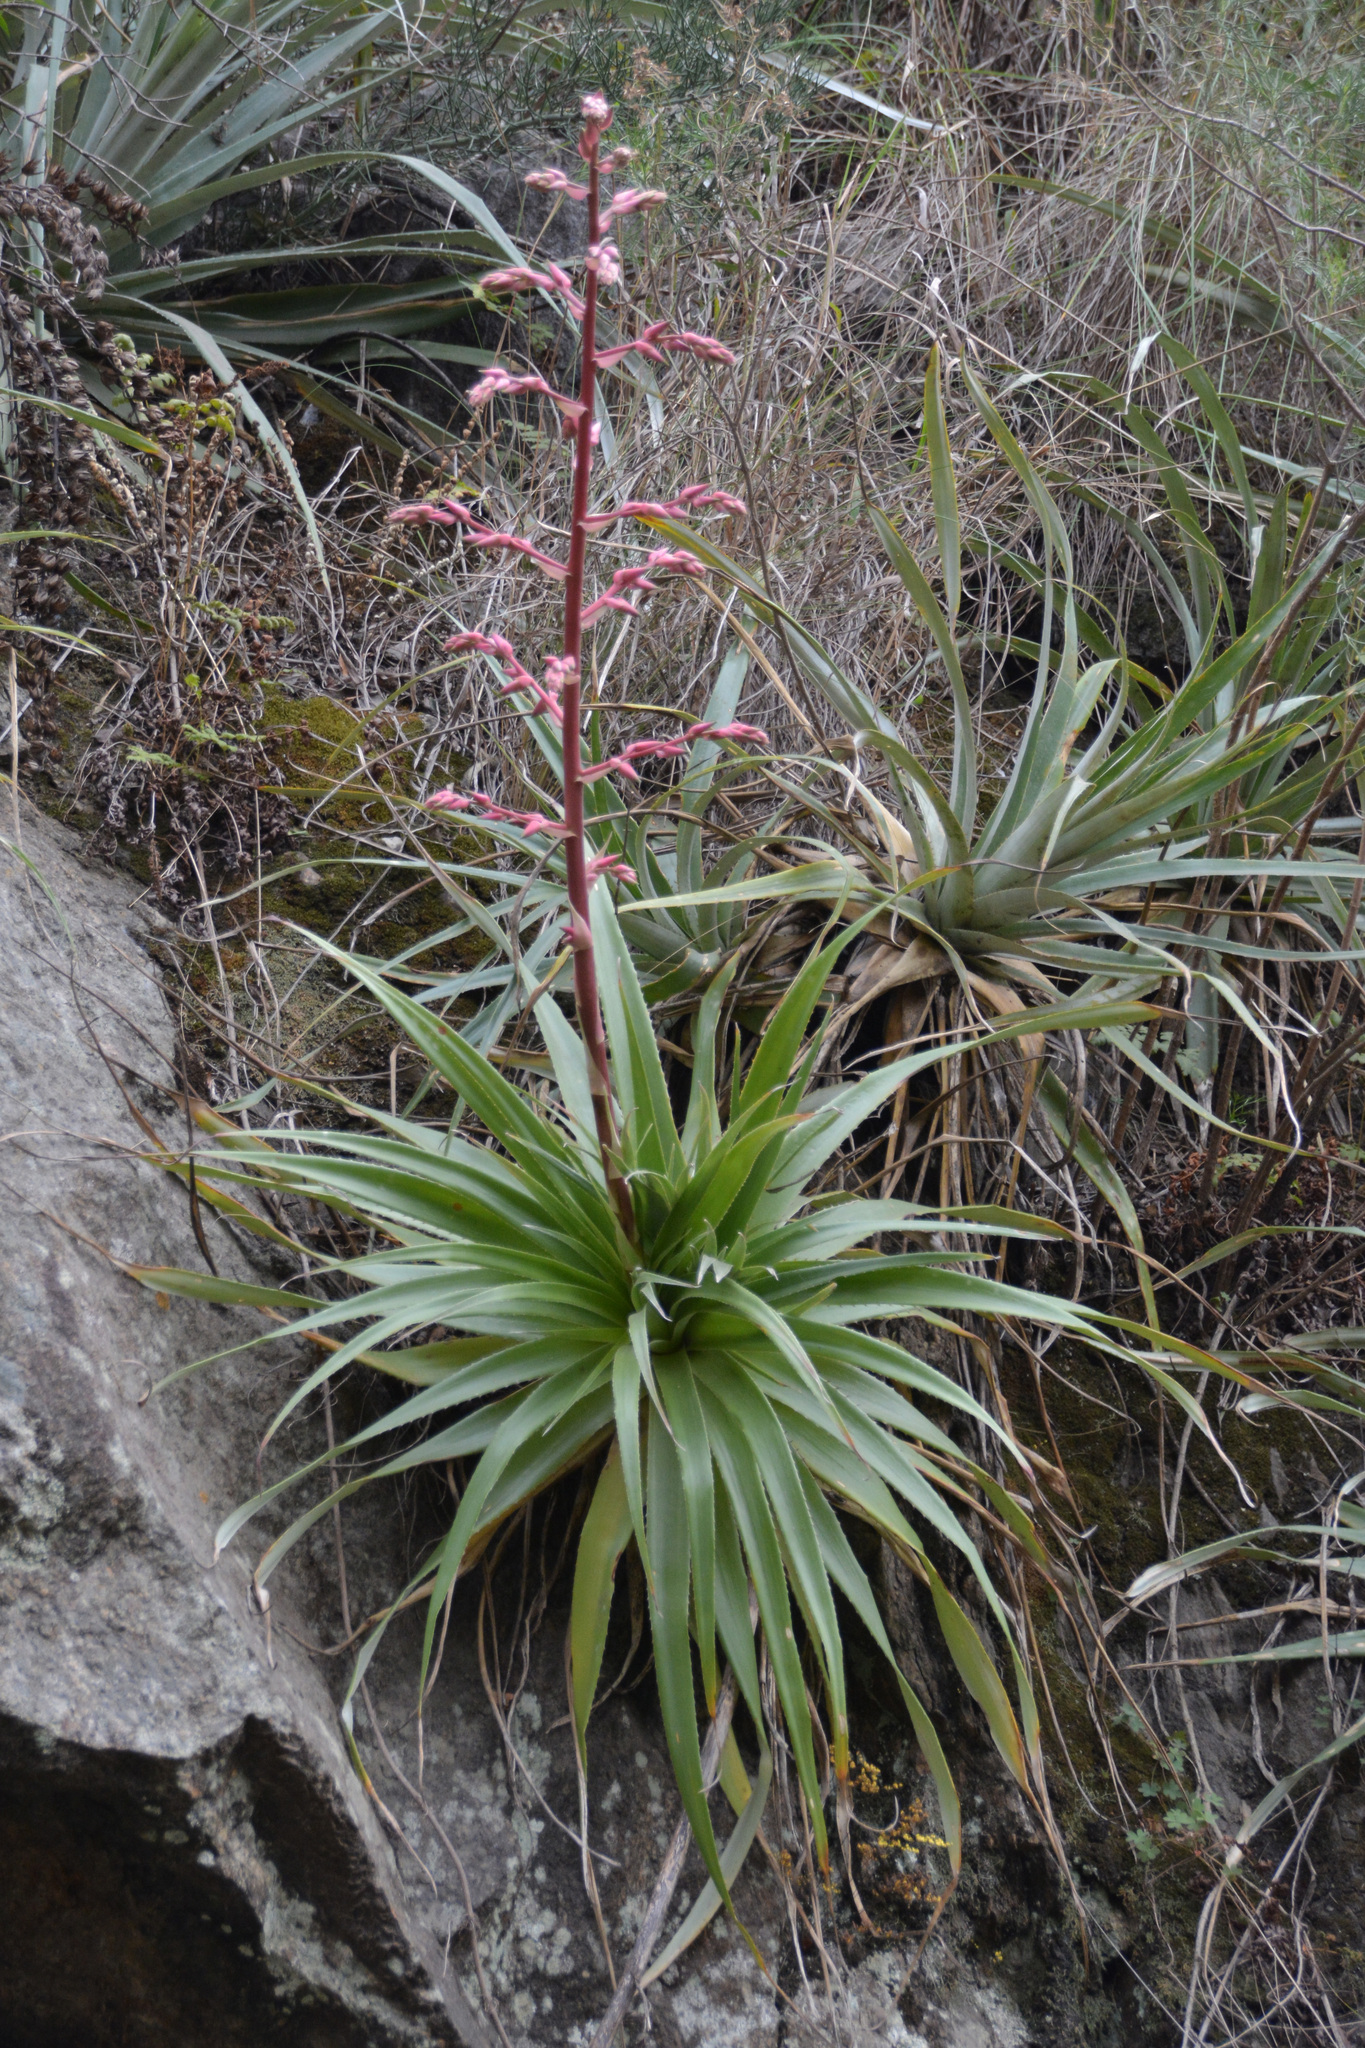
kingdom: Plantae
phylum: Tracheophyta
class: Liliopsida
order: Poales
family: Bromeliaceae
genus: Puya
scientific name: Puya spathacea
